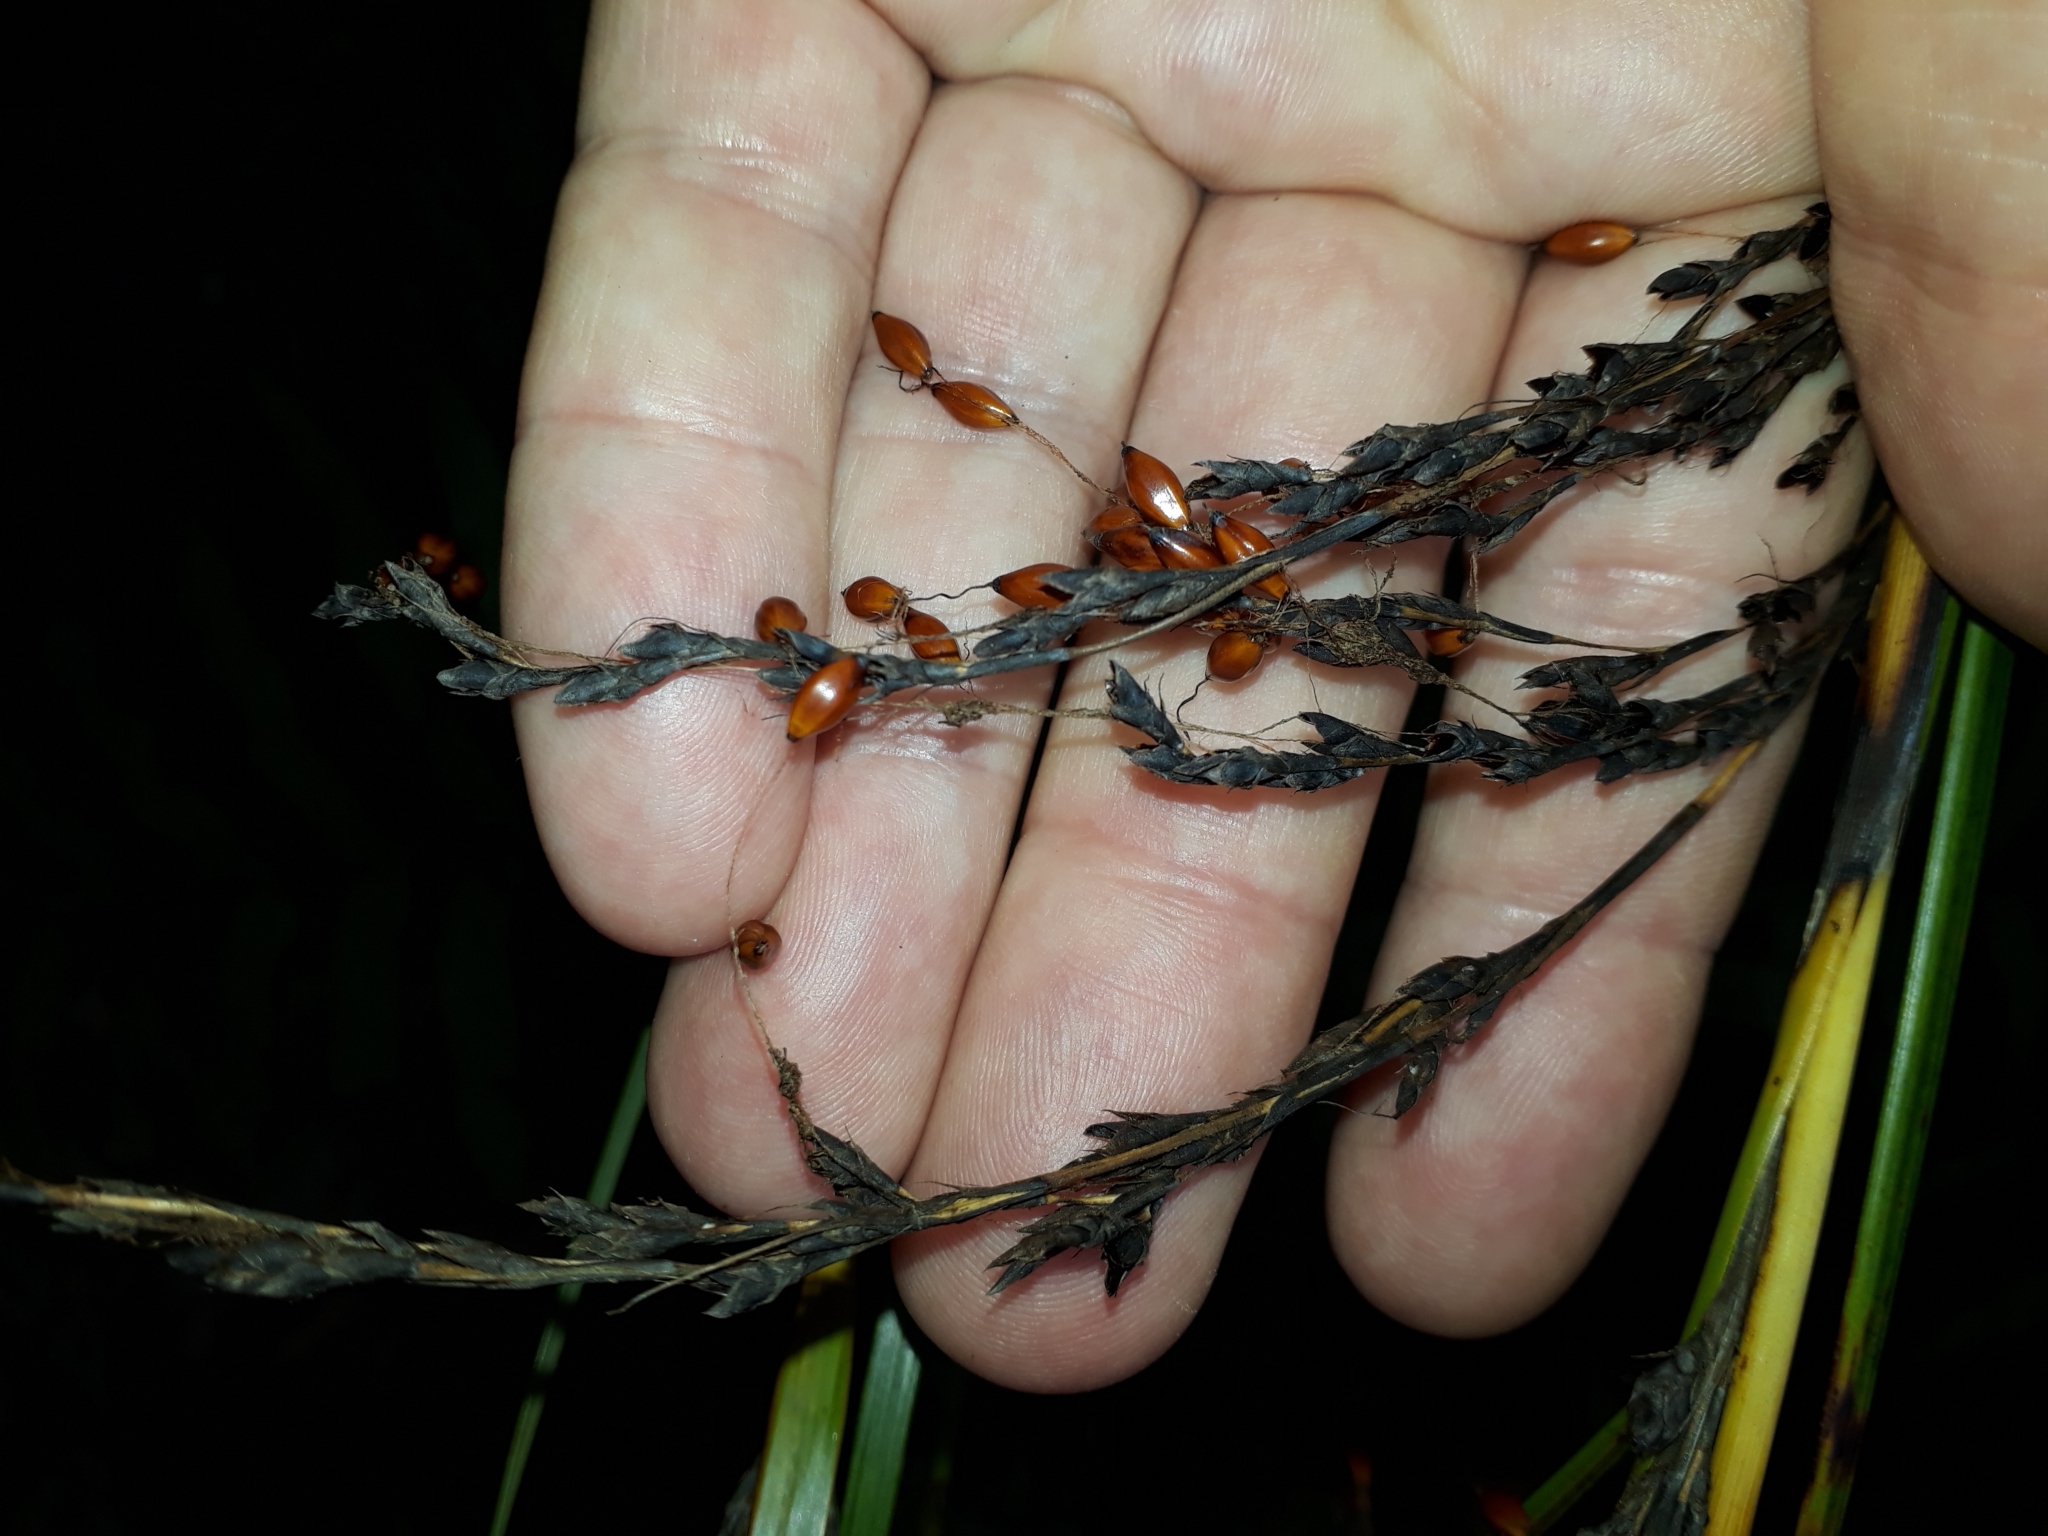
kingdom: Plantae
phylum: Tracheophyta
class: Liliopsida
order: Poales
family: Cyperaceae
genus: Gahnia
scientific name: Gahnia pauciflora
